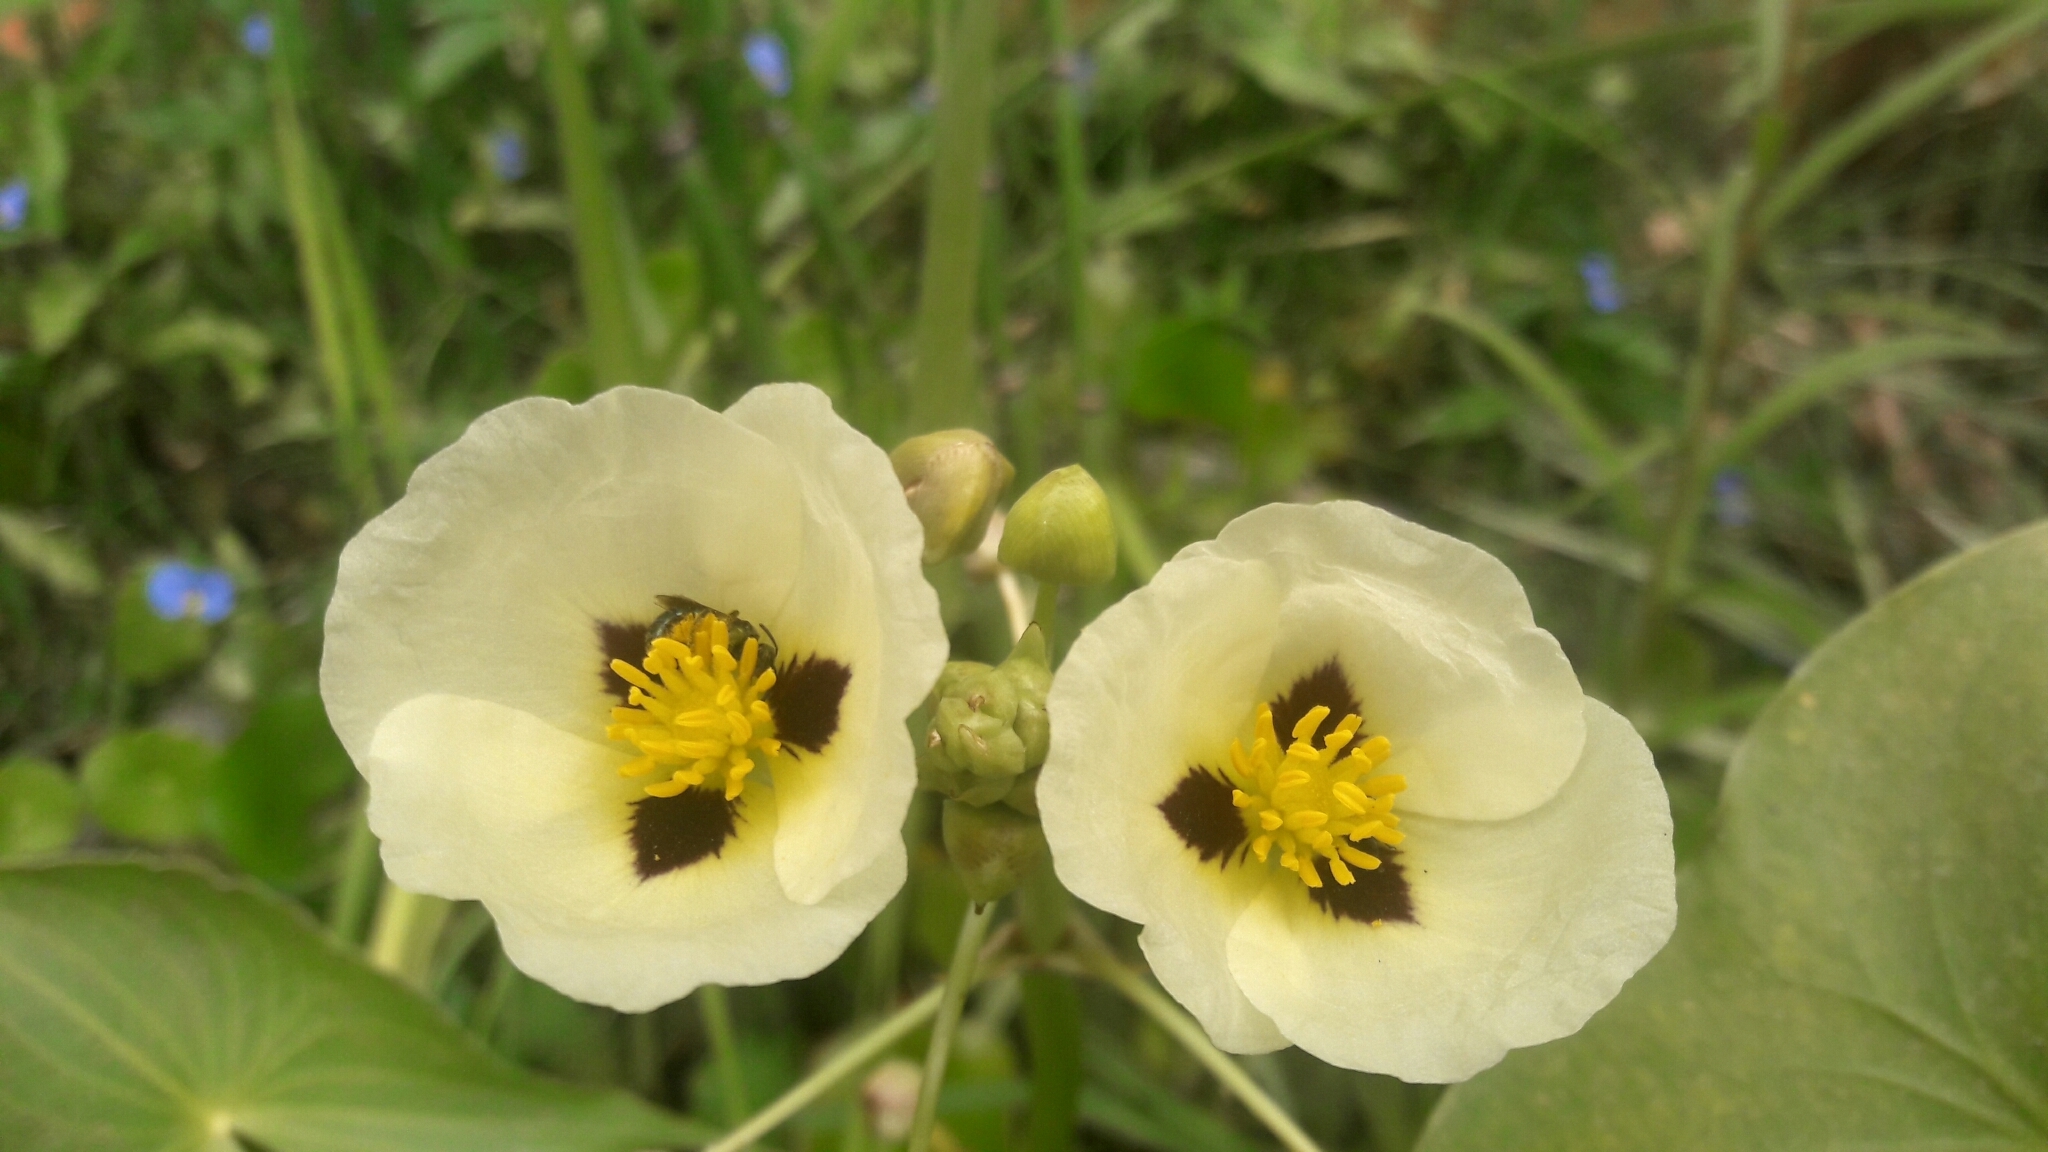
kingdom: Plantae
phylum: Tracheophyta
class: Liliopsida
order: Alismatales
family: Alismataceae
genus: Sagittaria
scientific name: Sagittaria montevidensis
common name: Giant arrowhead
